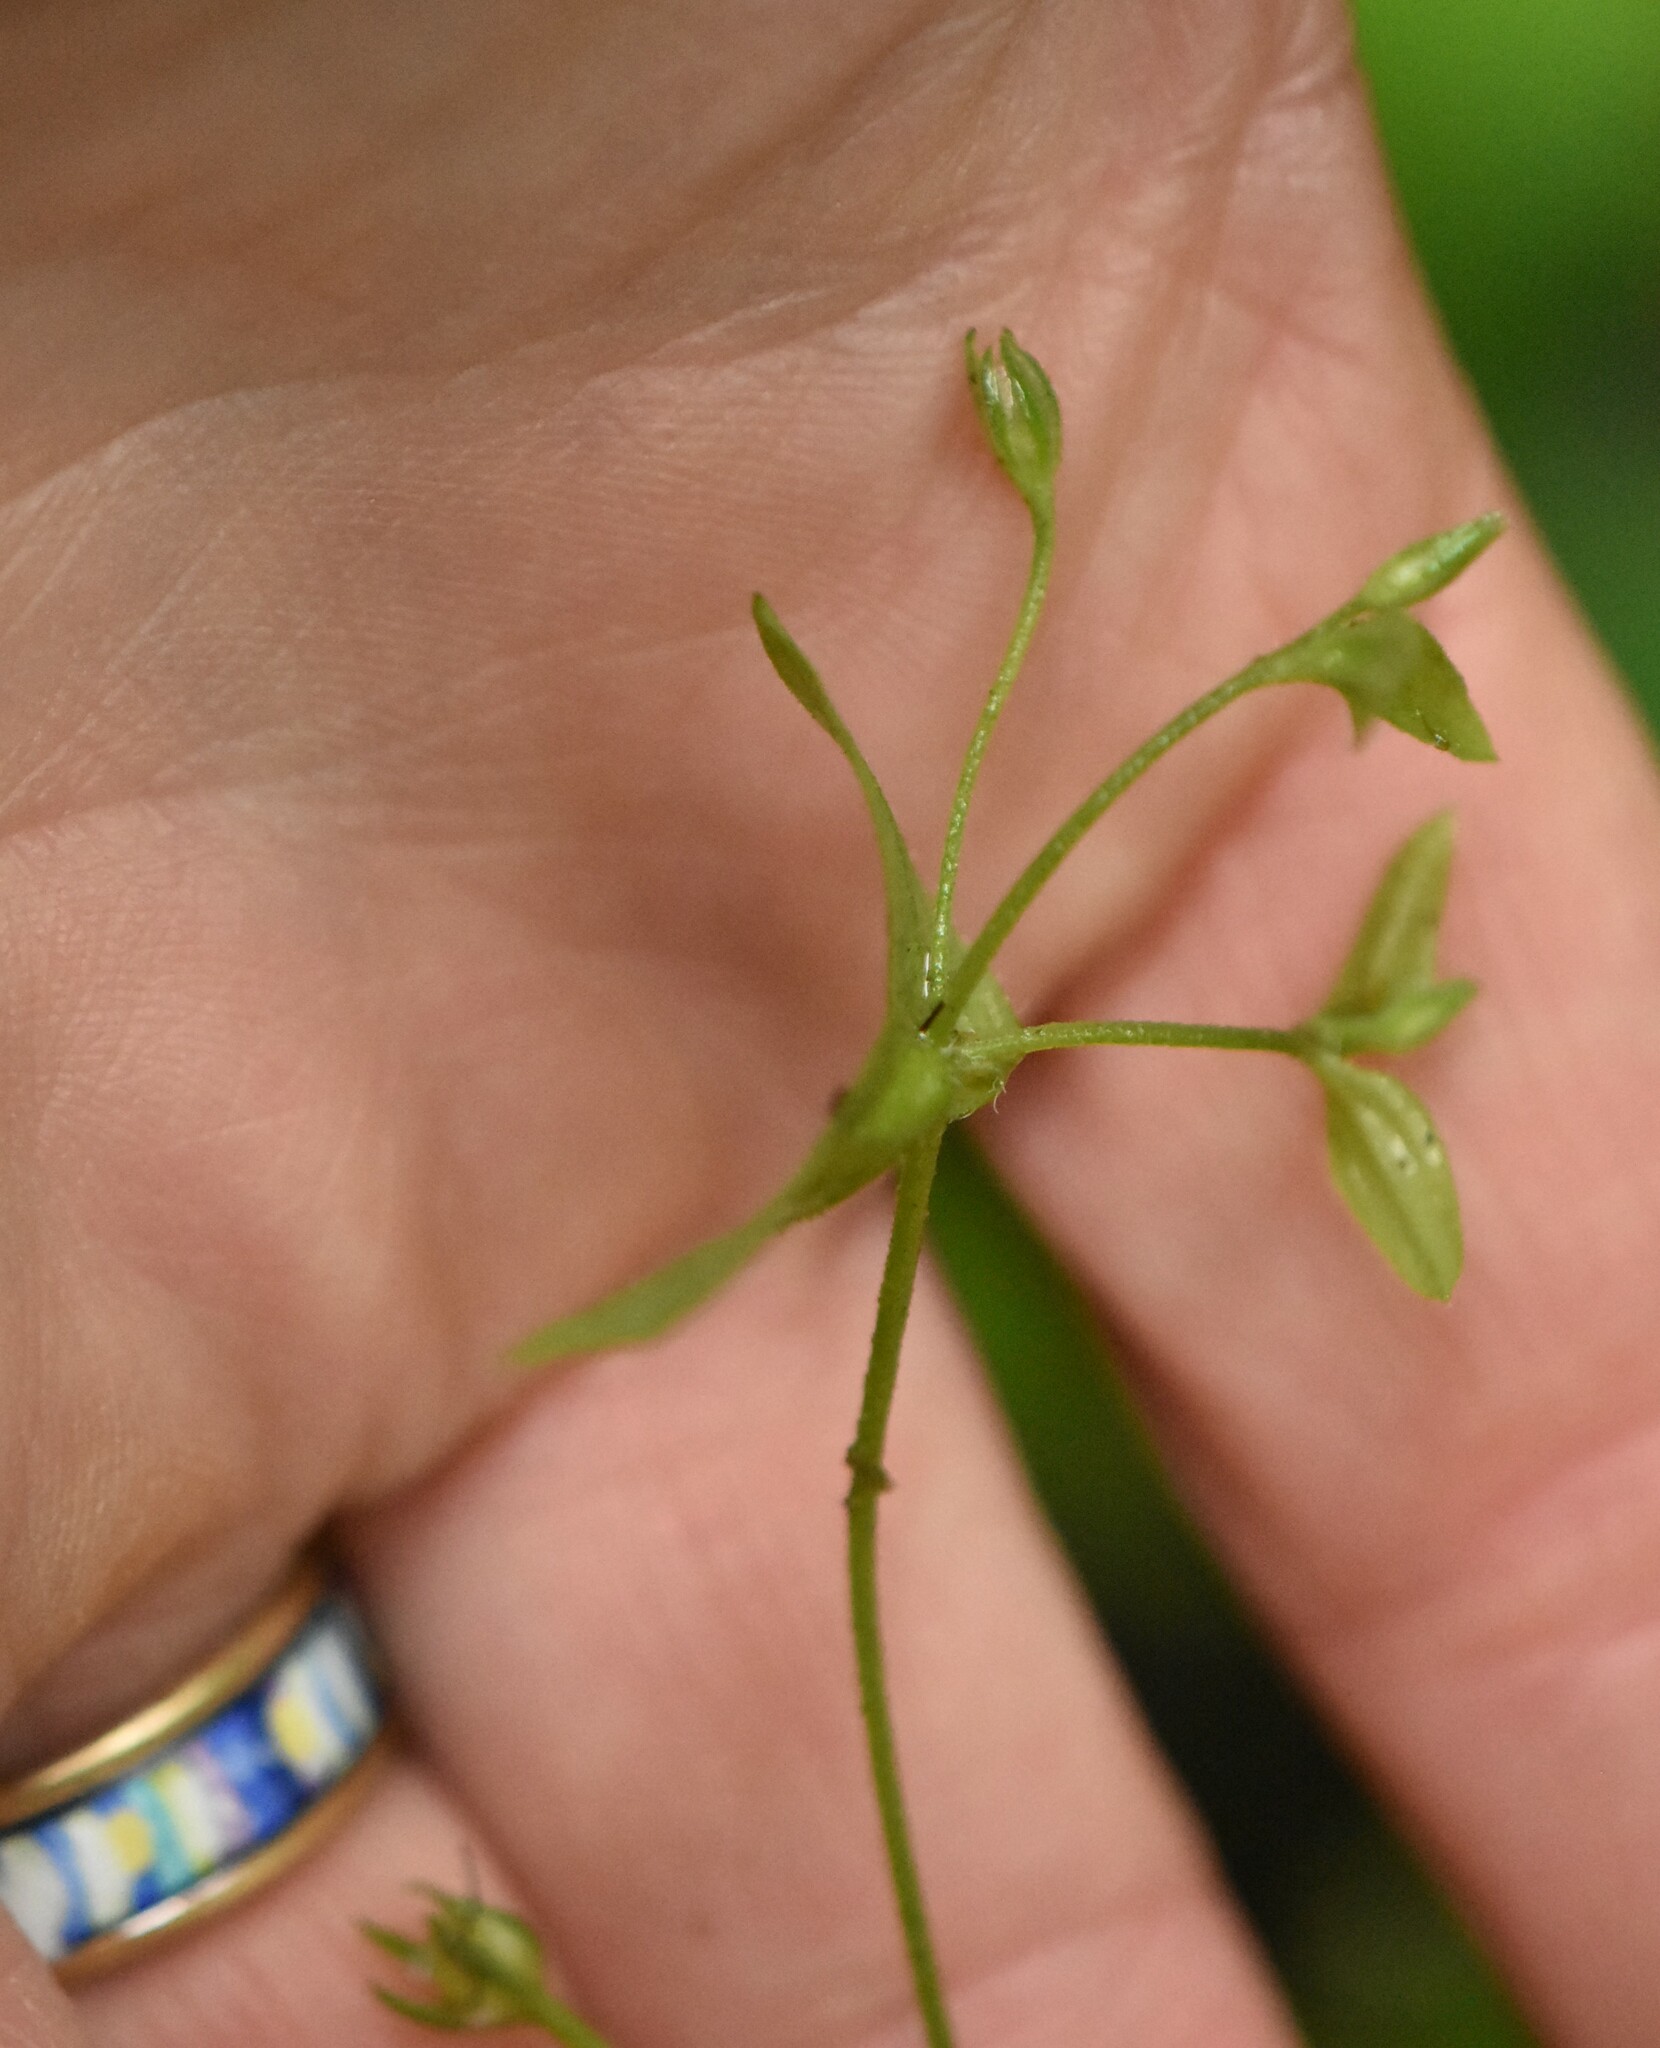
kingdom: Plantae
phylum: Tracheophyta
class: Magnoliopsida
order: Caryophyllales
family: Caryophyllaceae
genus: Moehringia
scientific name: Moehringia trinervia
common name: Three-nerved sandwort
